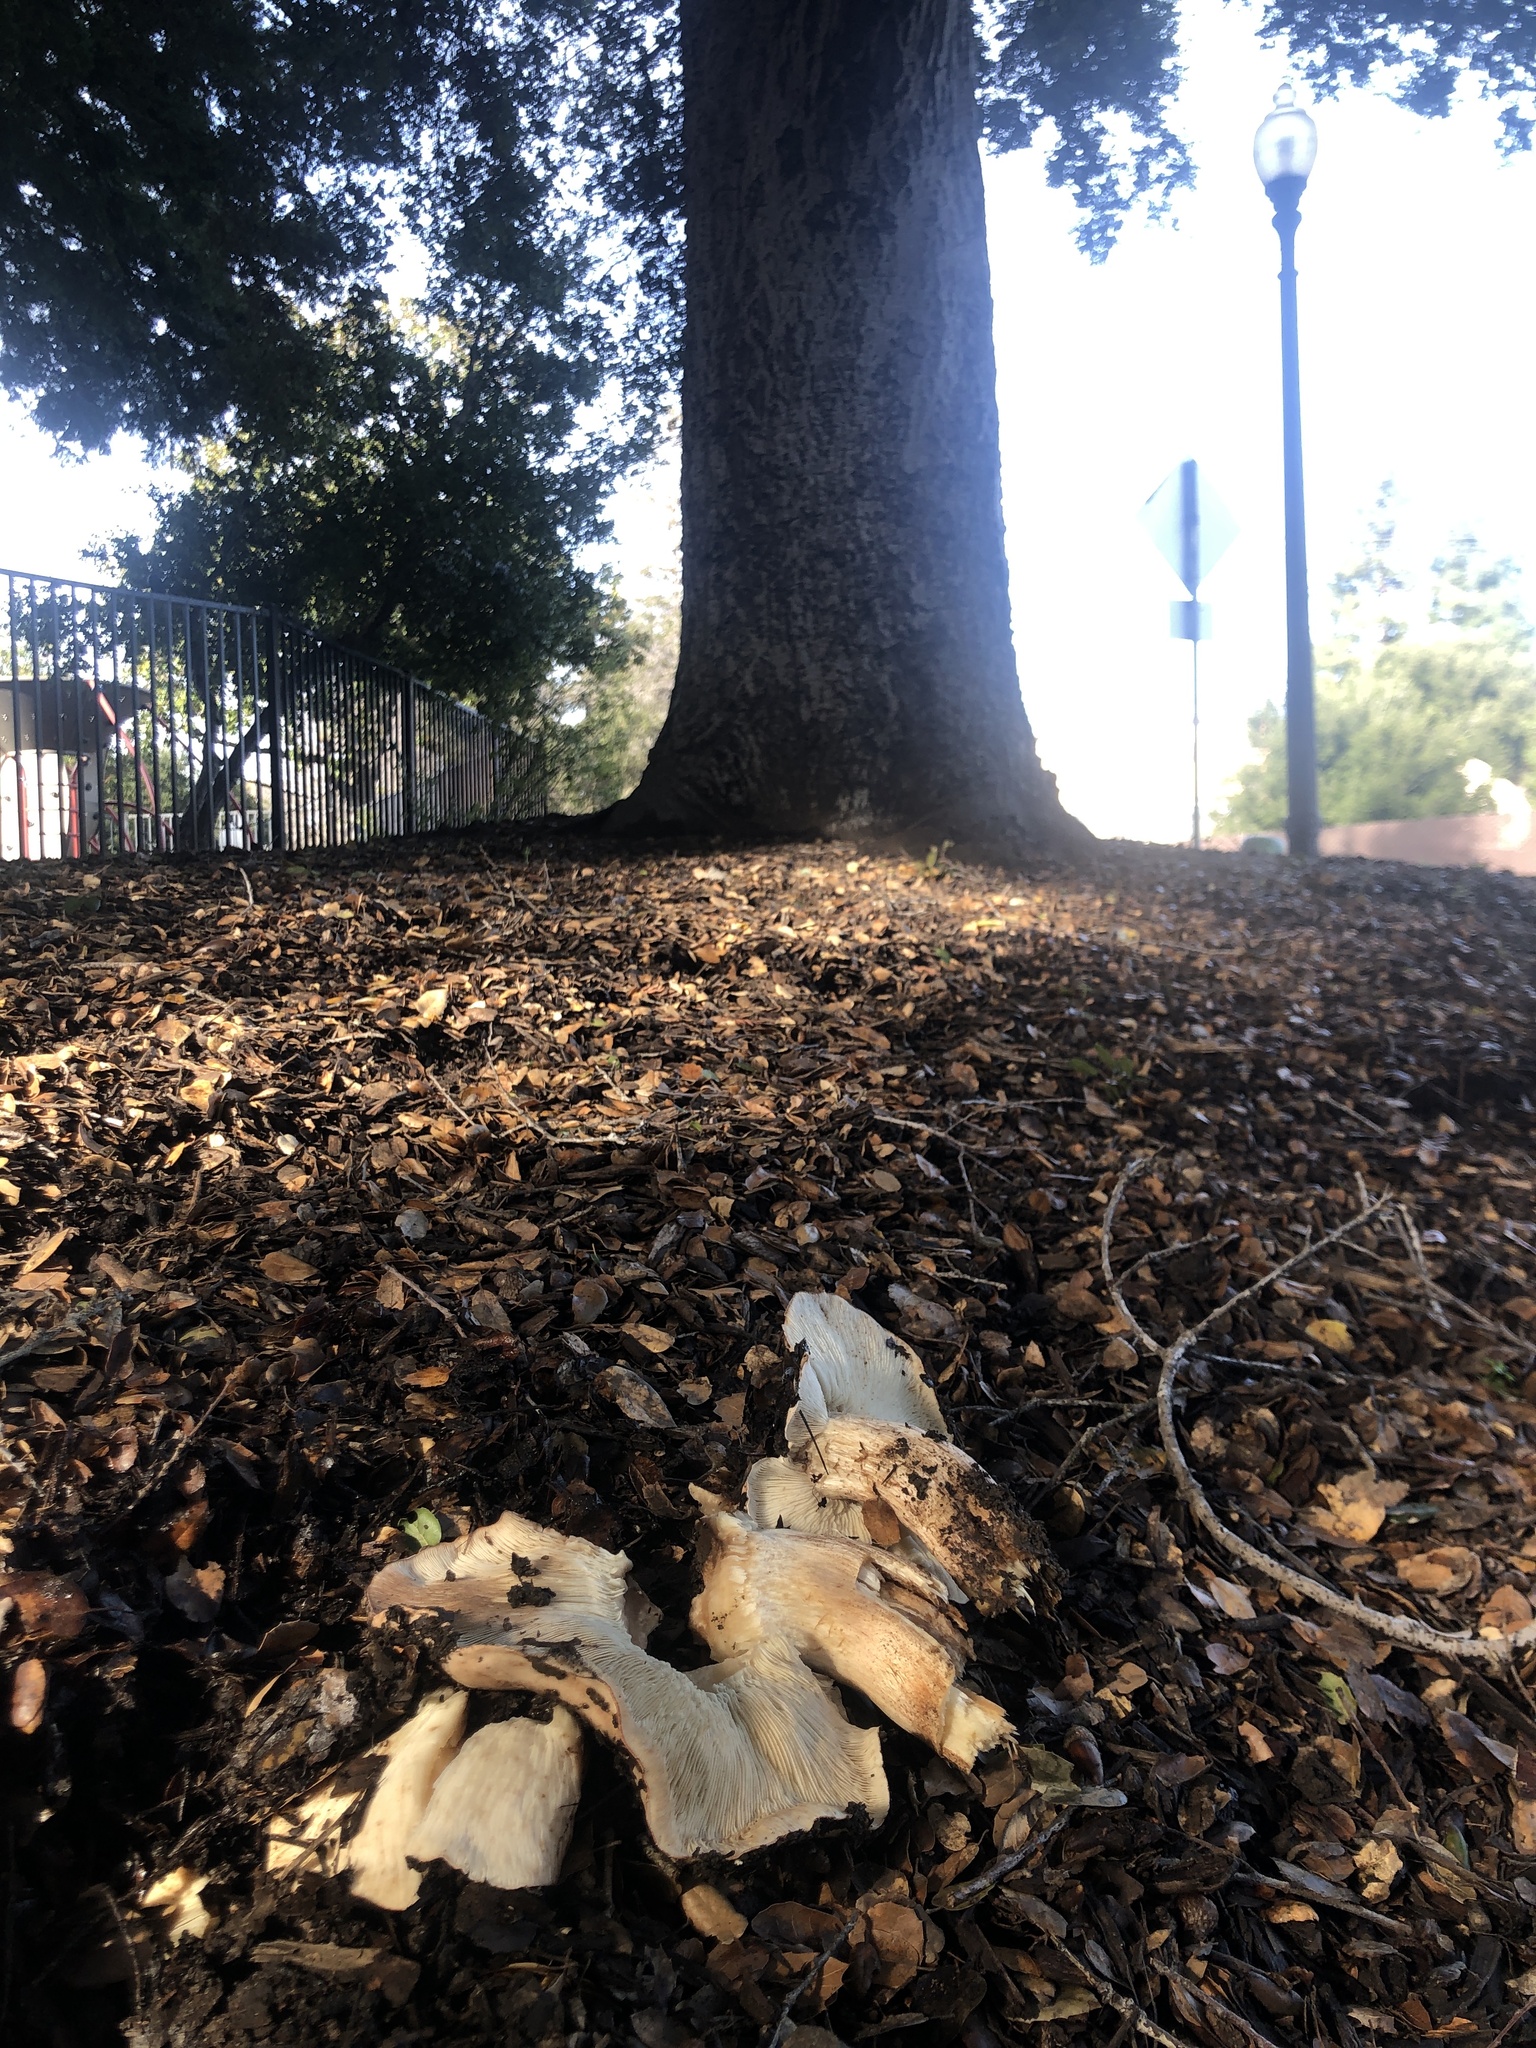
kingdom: Fungi
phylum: Basidiomycota
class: Agaricomycetes
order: Agaricales
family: Tricholomataceae
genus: Melanoleuca
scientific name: Melanoleuca dryophila
